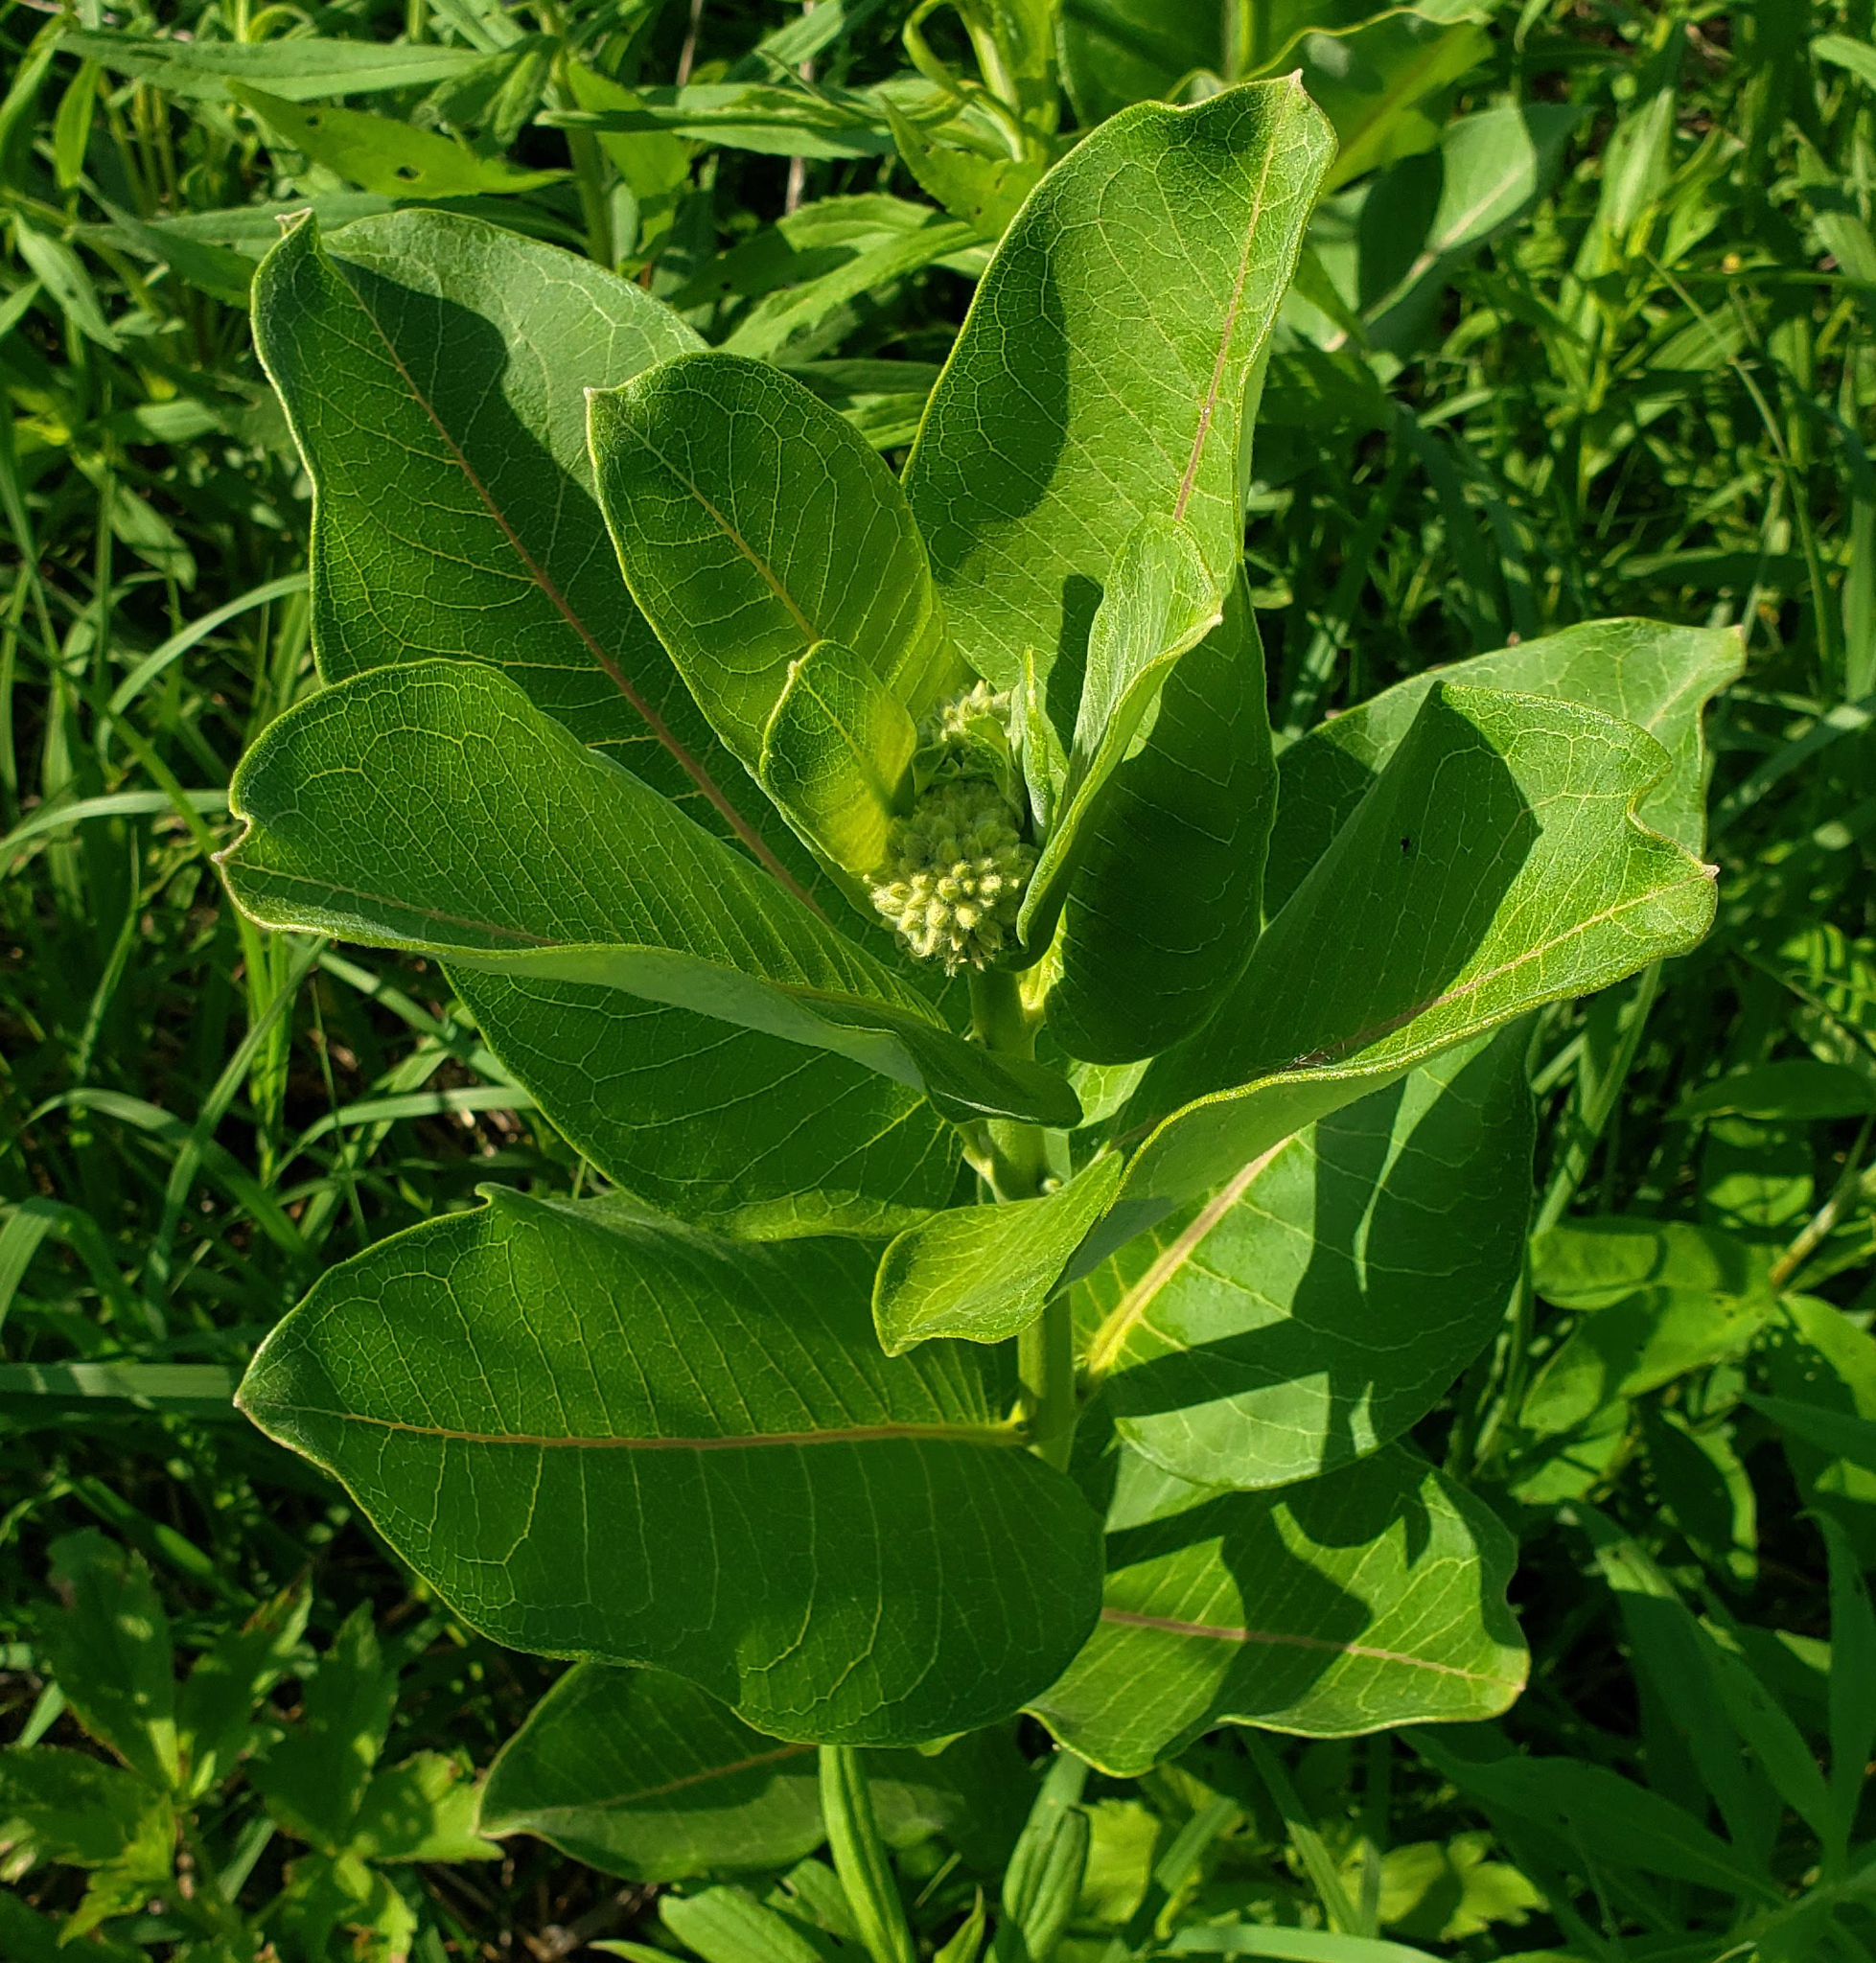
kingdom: Plantae
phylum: Tracheophyta
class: Magnoliopsida
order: Gentianales
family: Apocynaceae
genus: Asclepias
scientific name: Asclepias syriaca
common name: Common milkweed
